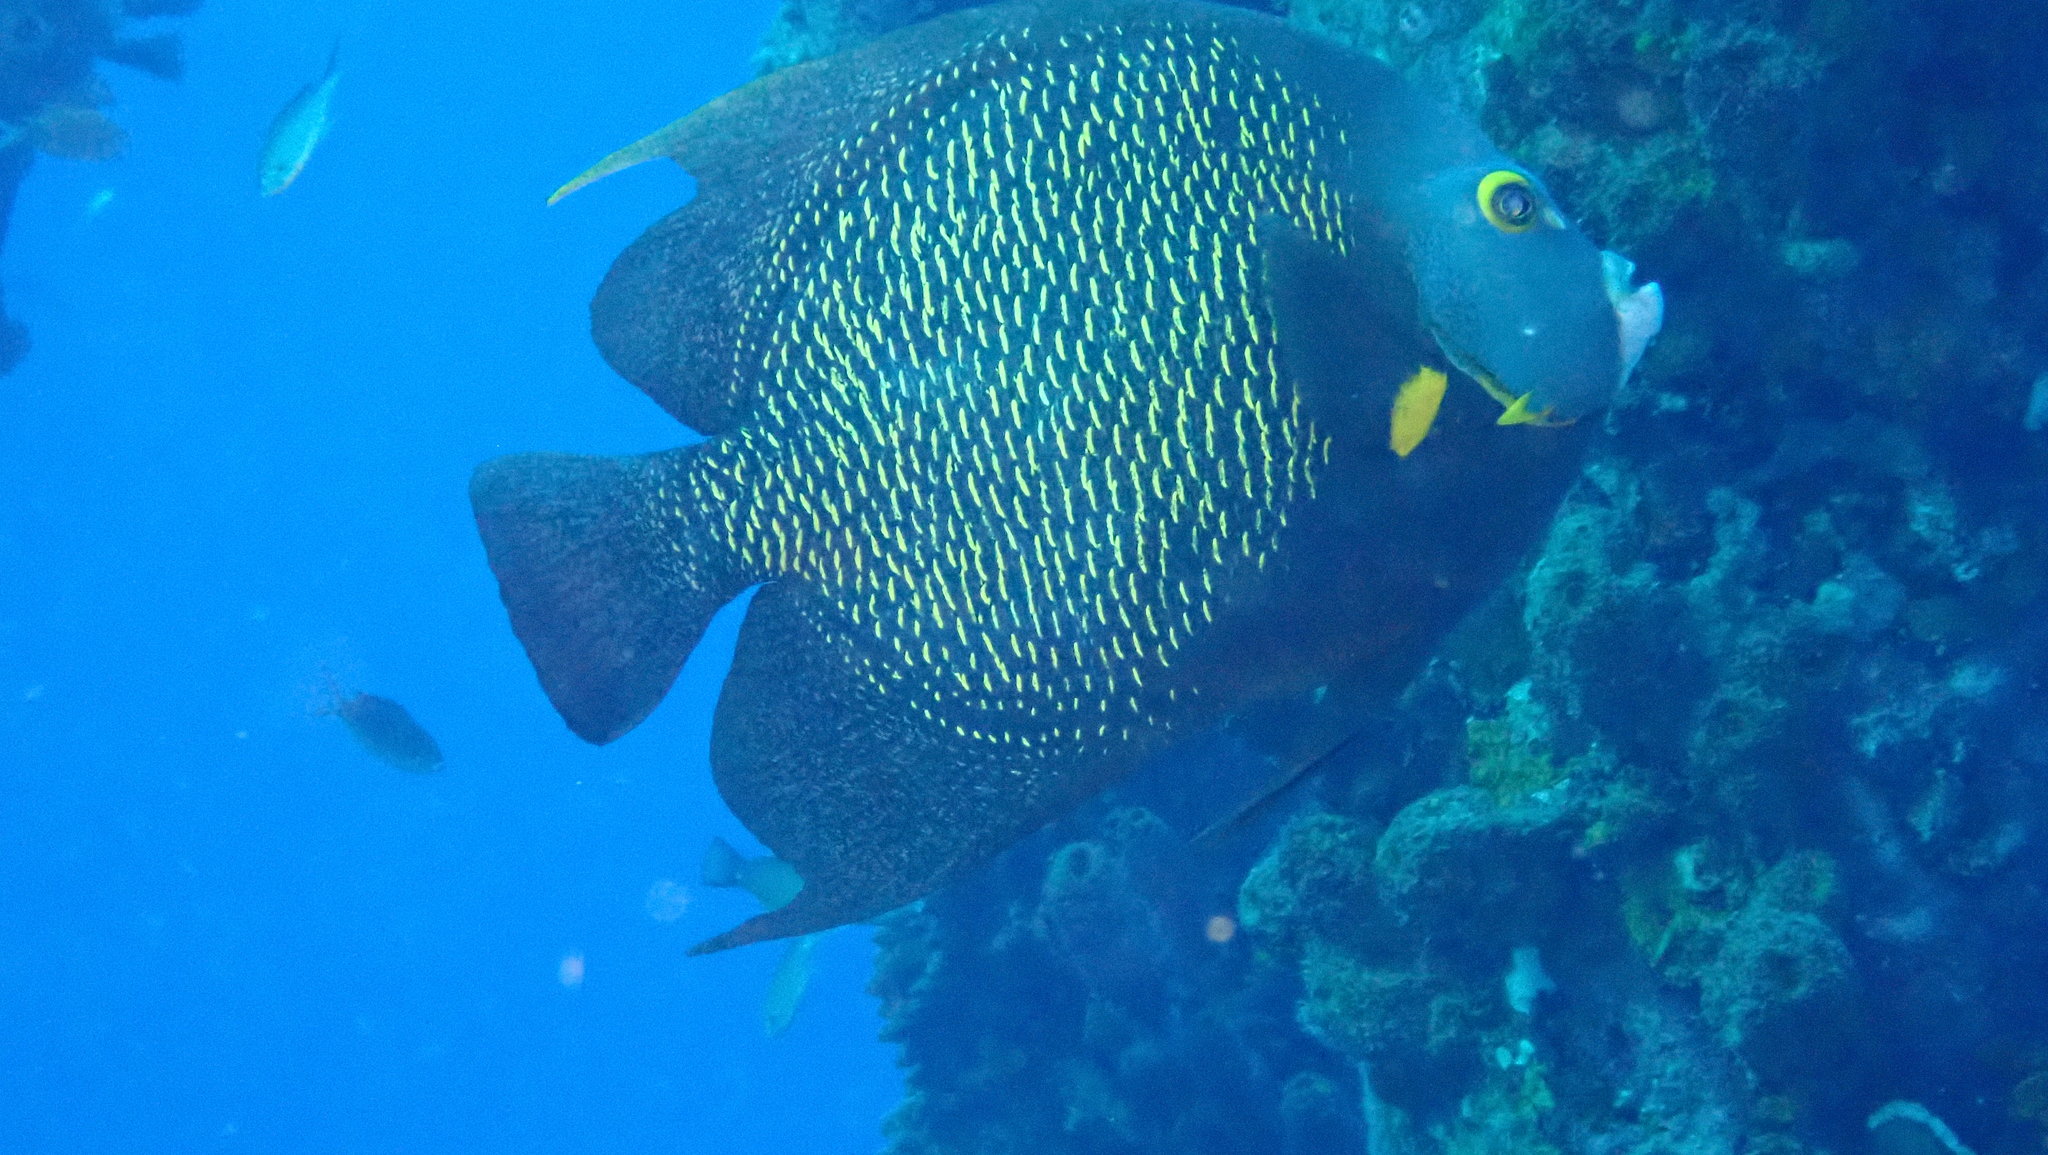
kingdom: Animalia
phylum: Chordata
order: Perciformes
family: Pomacanthidae
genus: Pomacanthus
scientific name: Pomacanthus paru
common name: French angelfish
